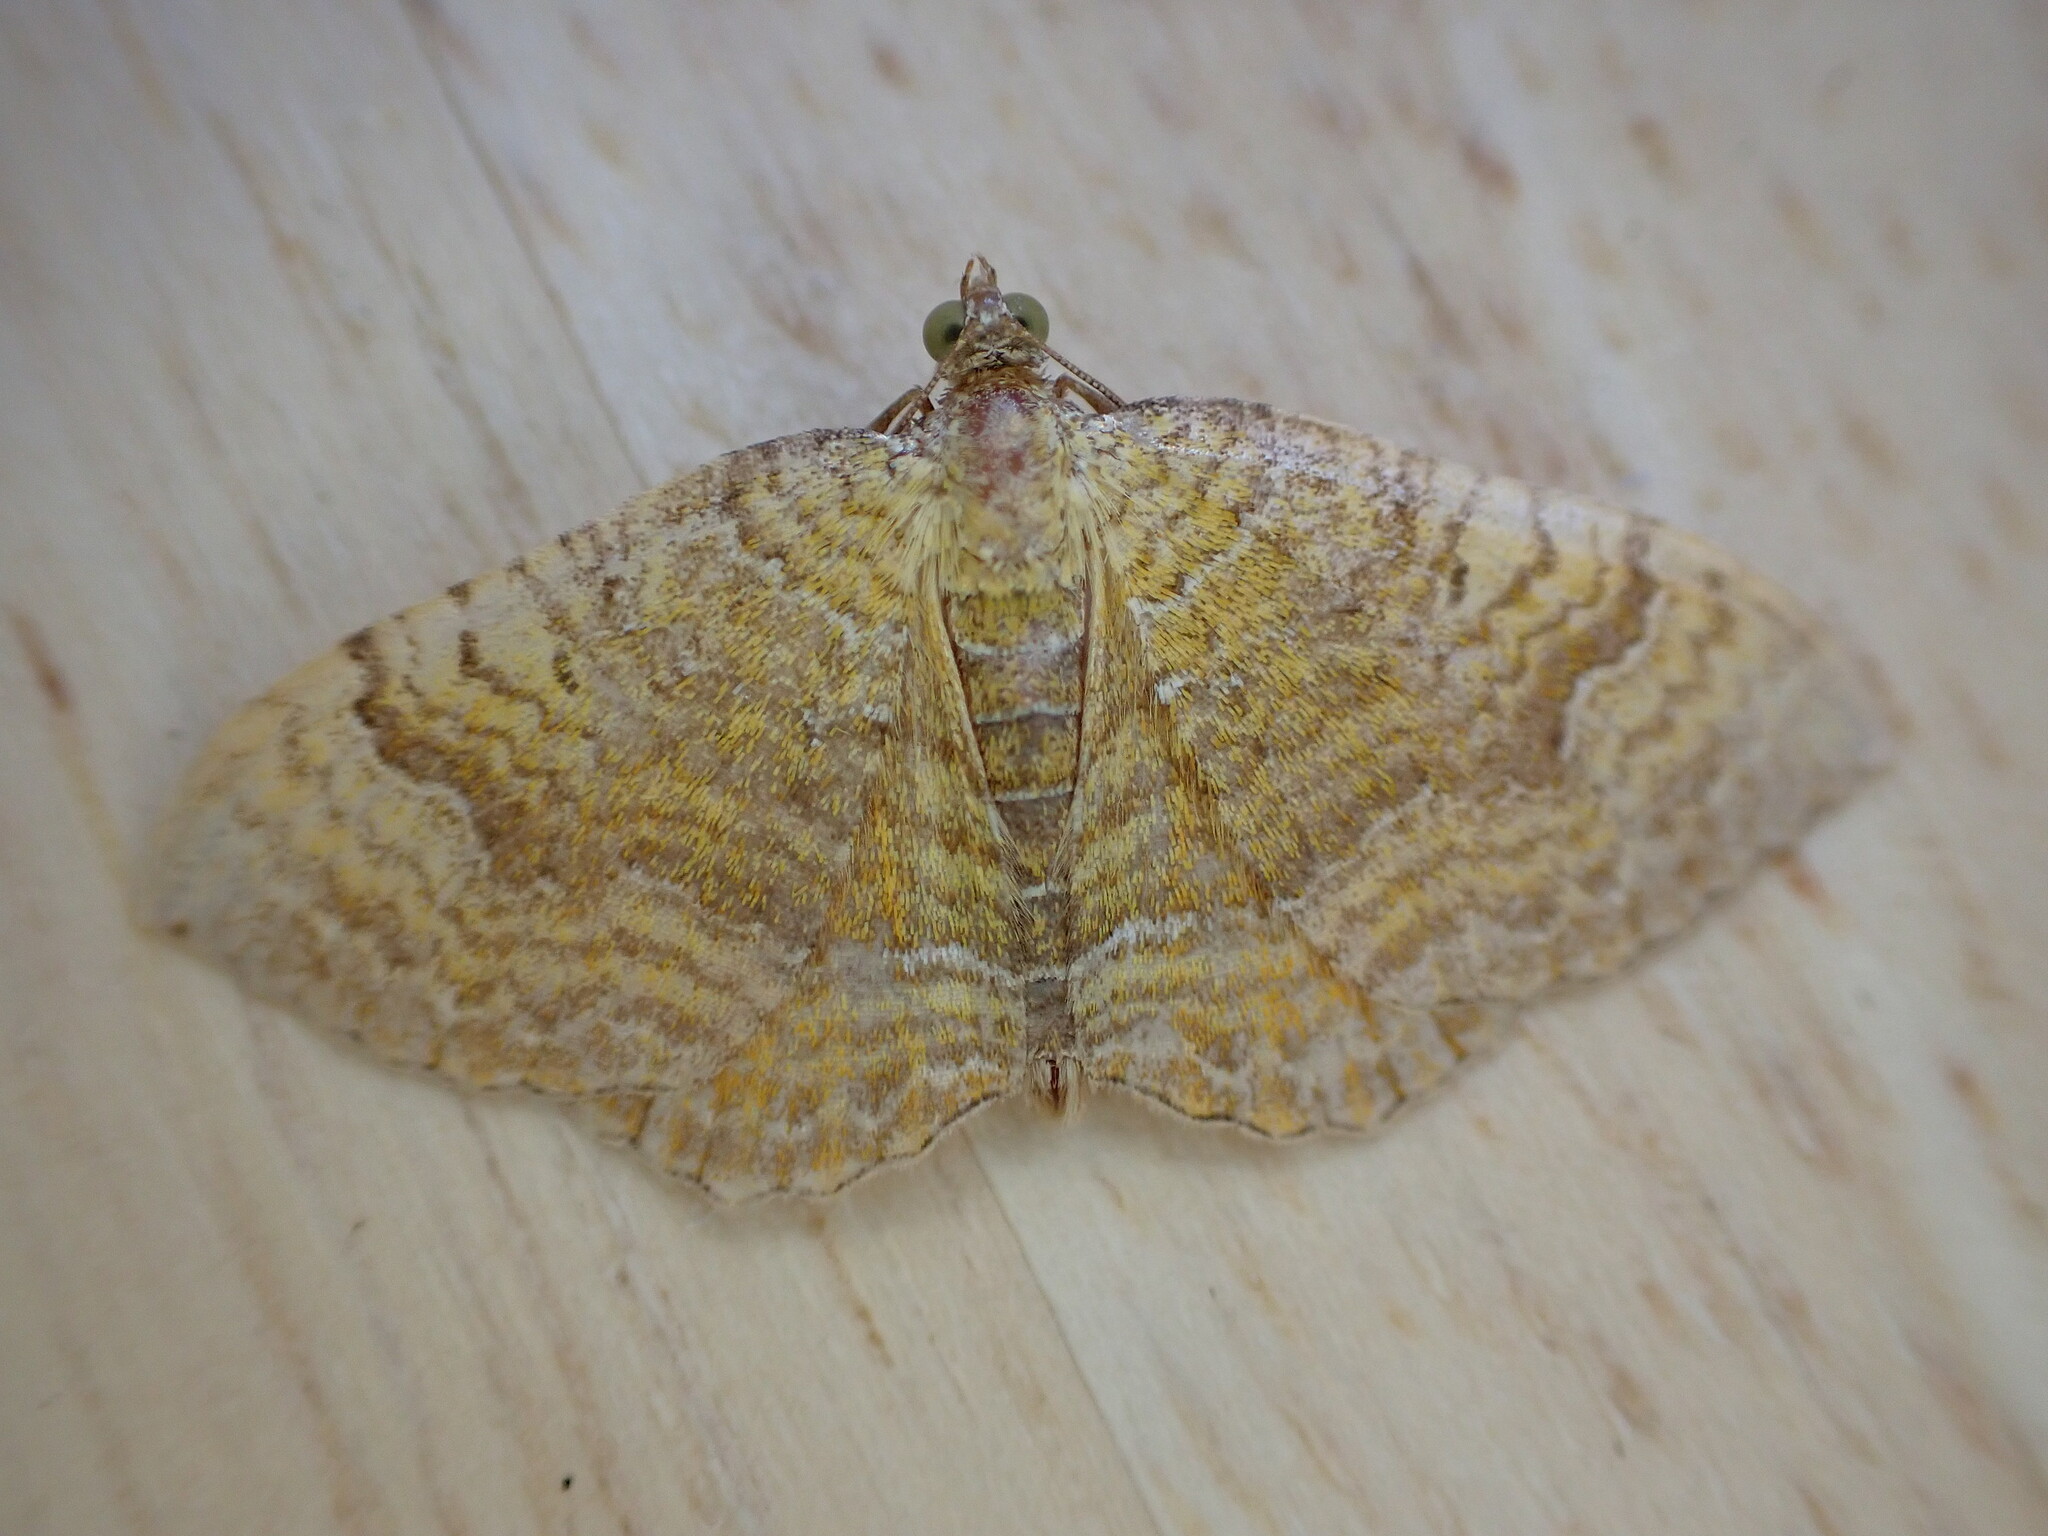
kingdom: Animalia
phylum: Arthropoda
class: Insecta
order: Lepidoptera
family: Geometridae
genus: Camptogramma
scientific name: Camptogramma bilineata
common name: Yellow shell
